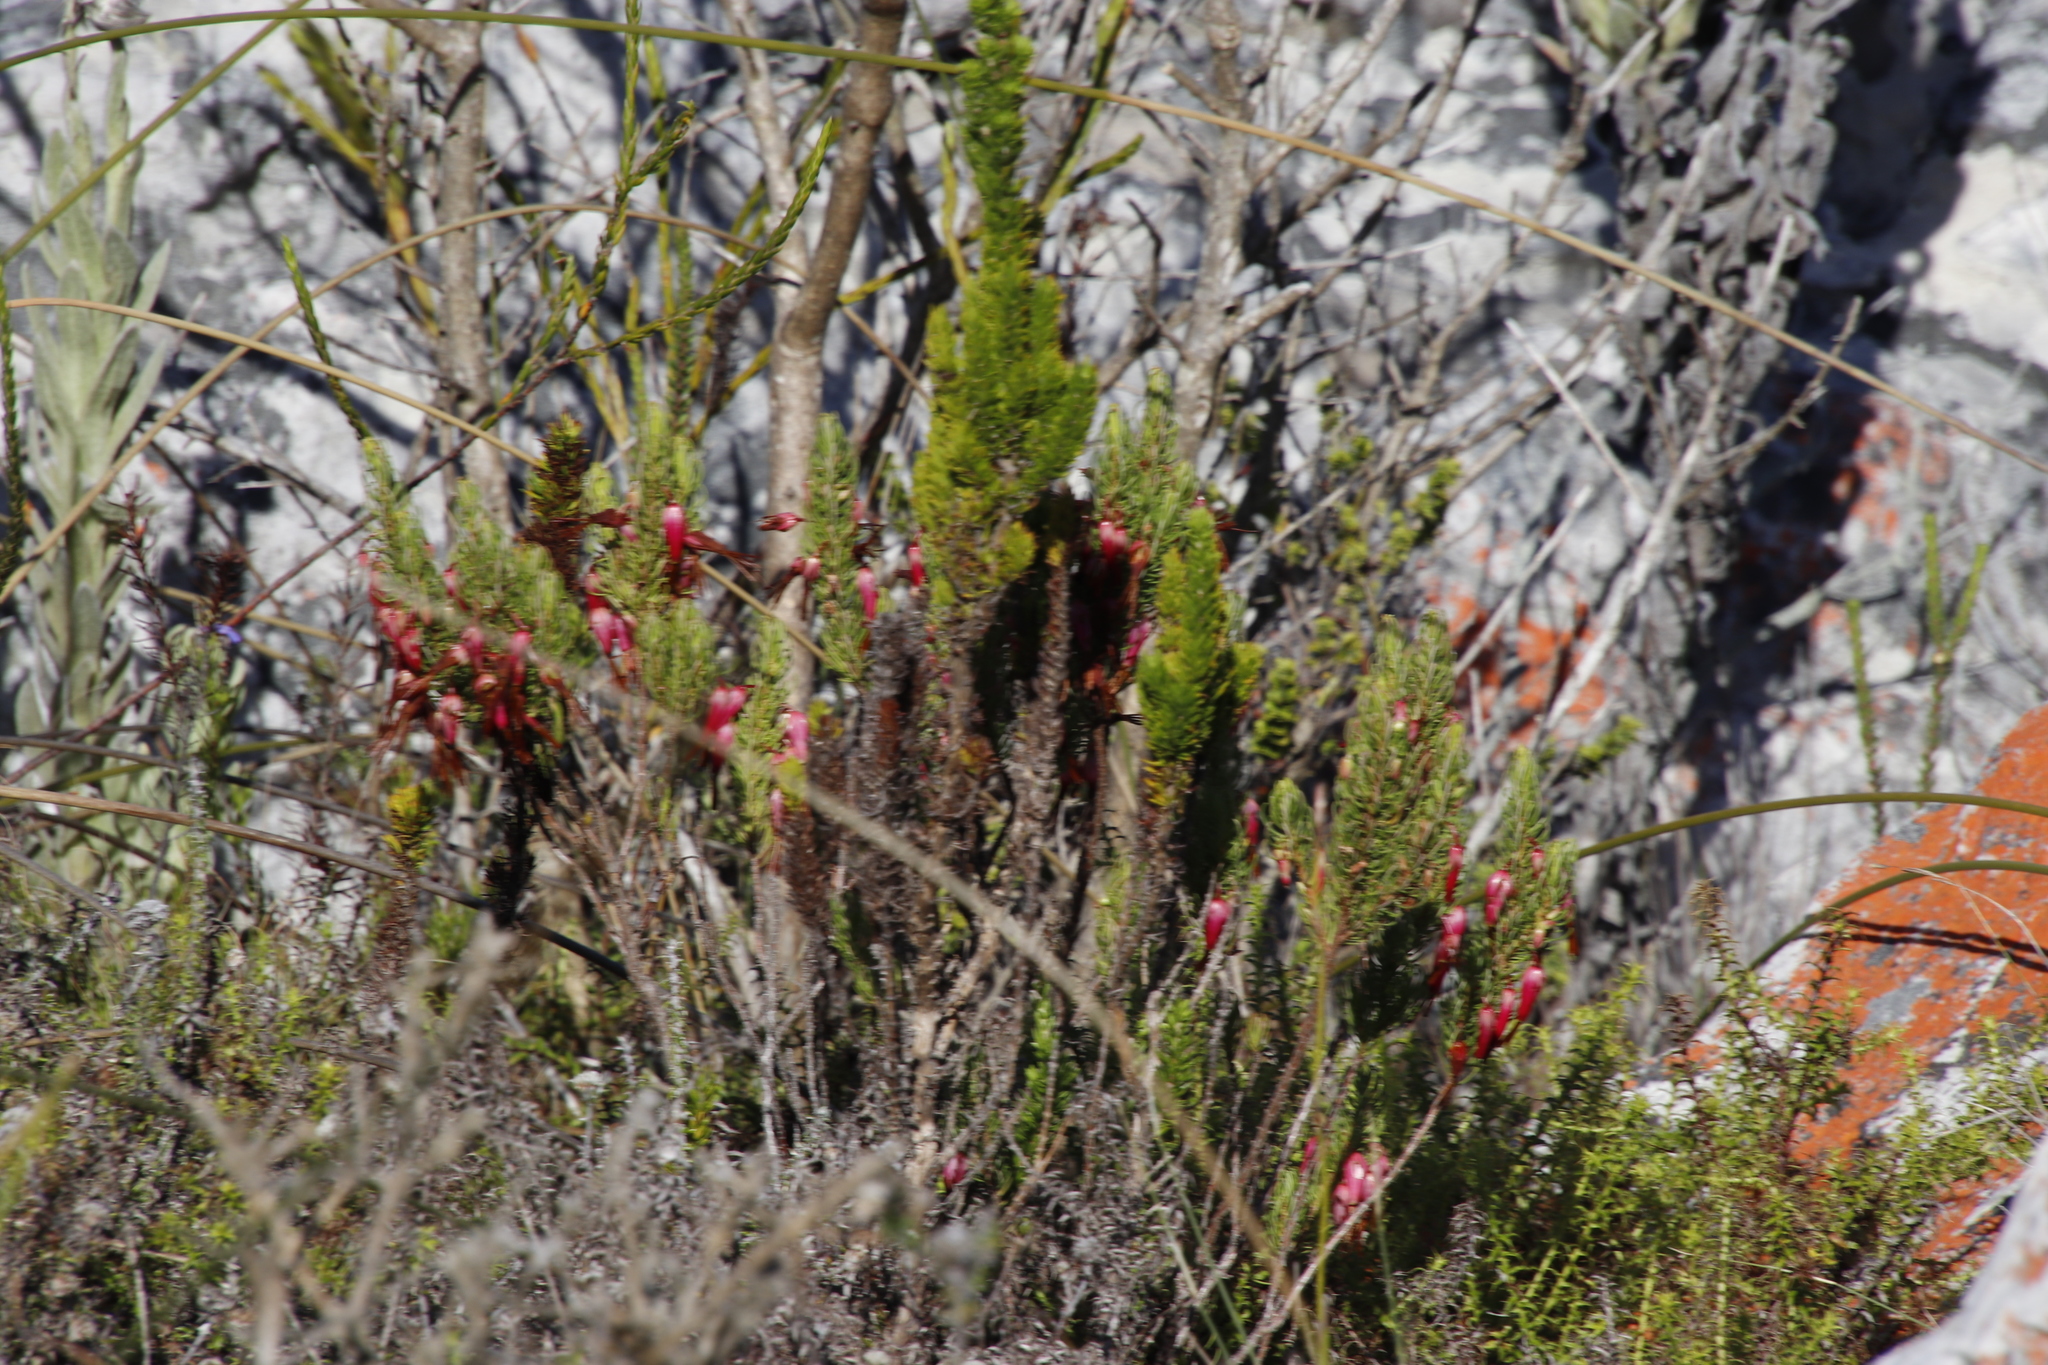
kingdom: Plantae
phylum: Tracheophyta
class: Magnoliopsida
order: Ericales
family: Ericaceae
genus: Erica
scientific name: Erica plukenetii
